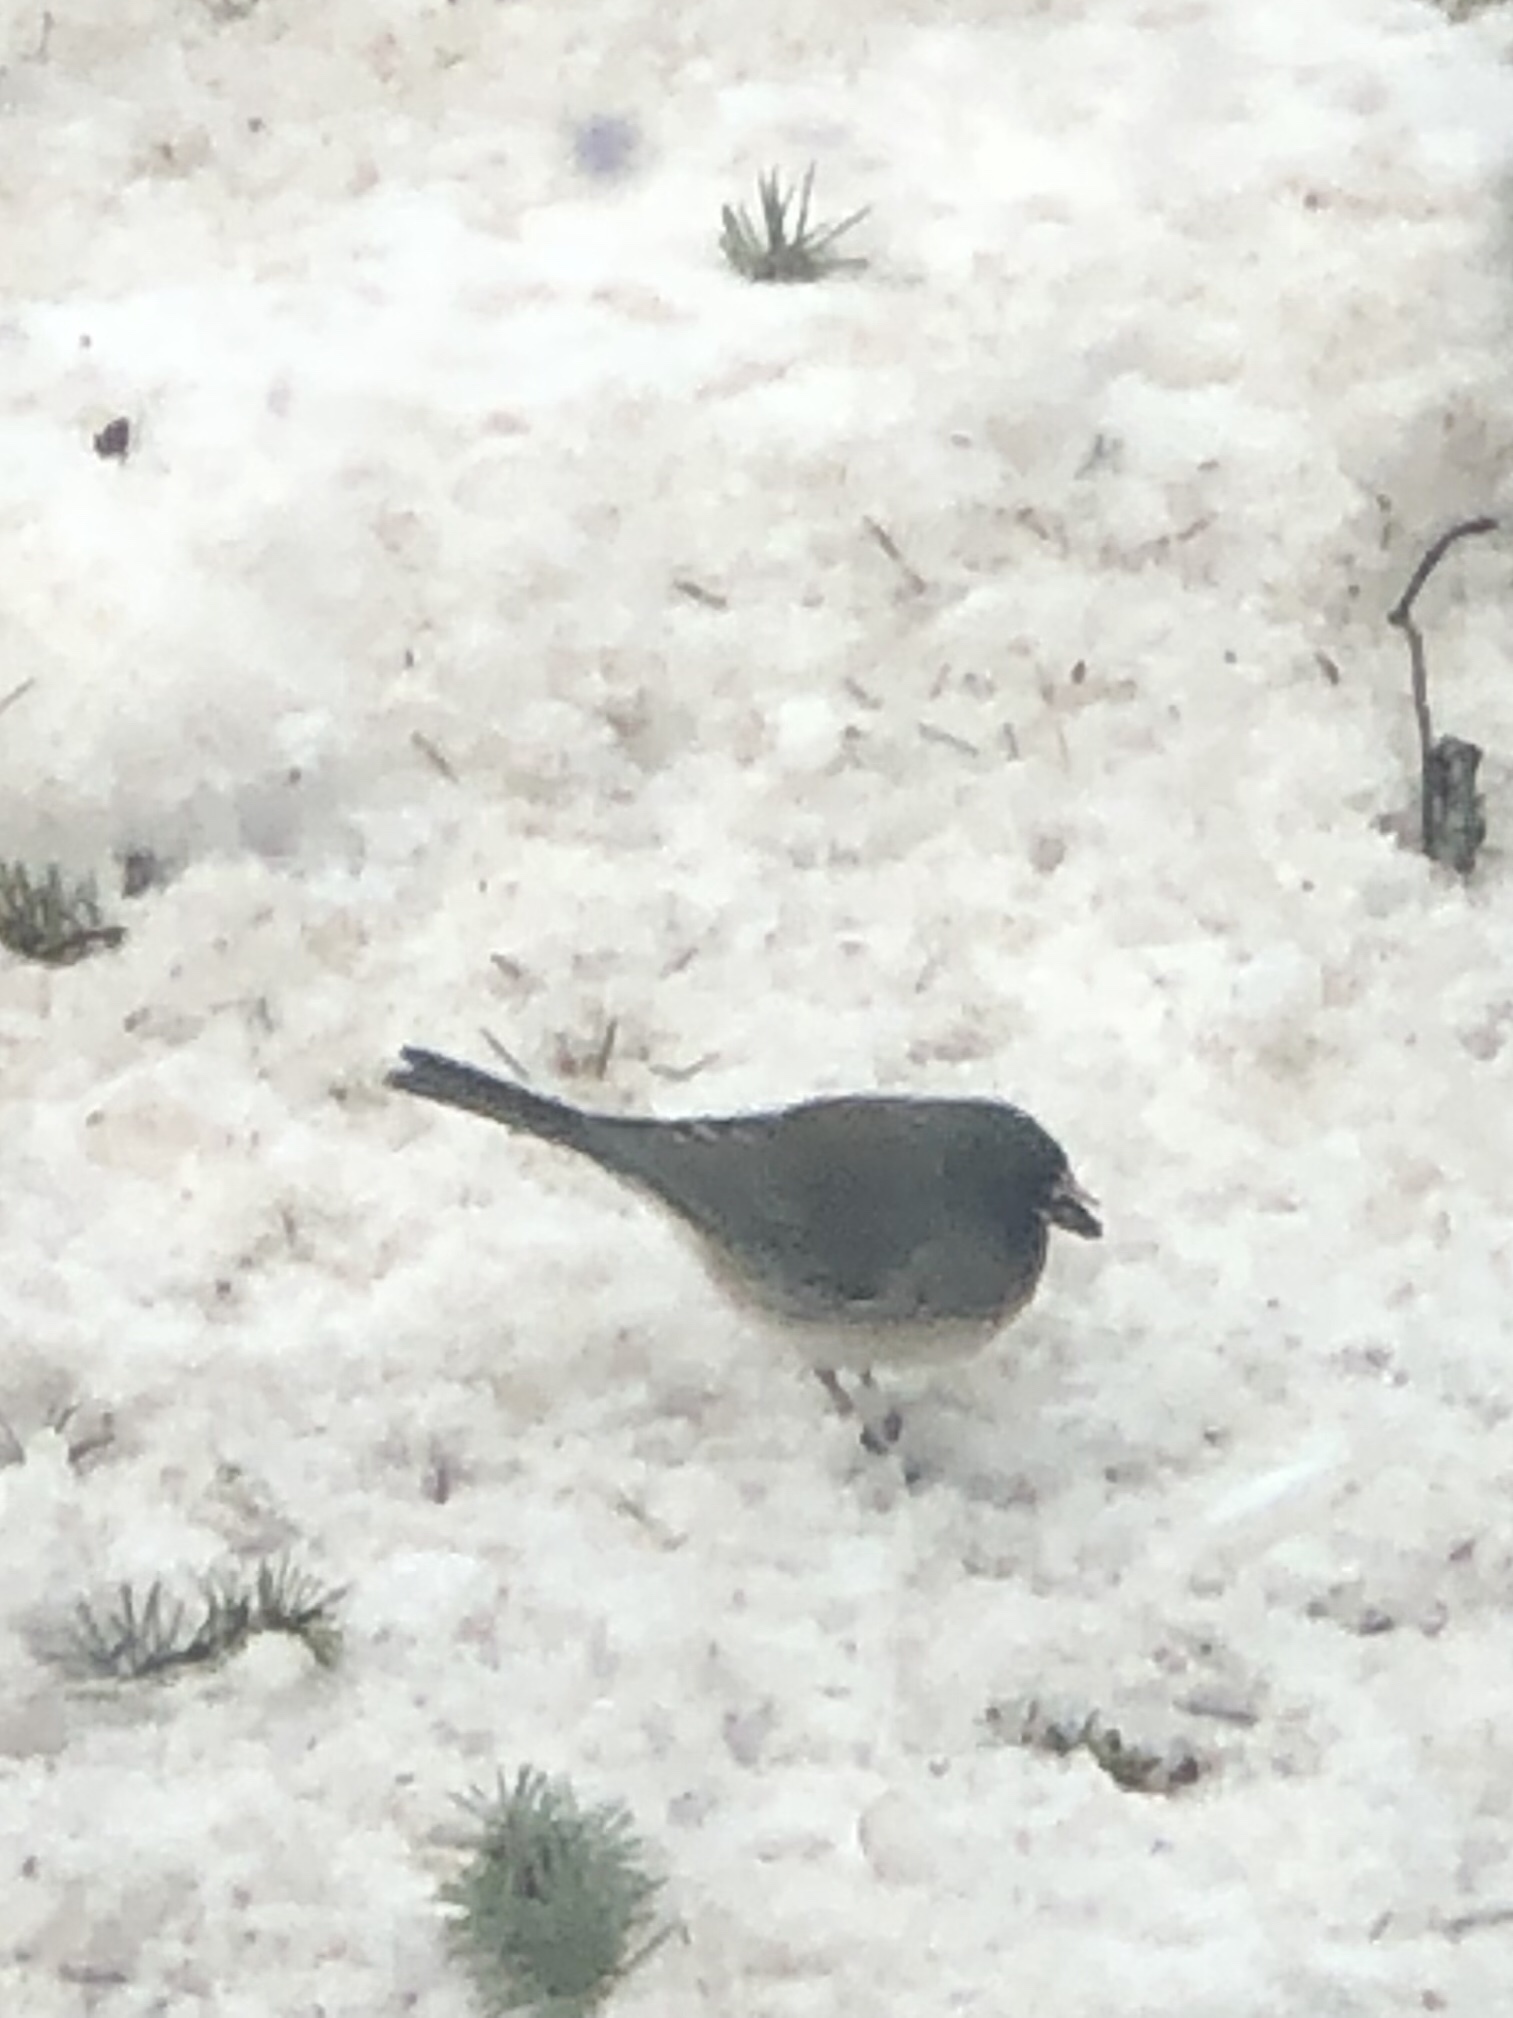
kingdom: Animalia
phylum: Chordata
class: Aves
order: Passeriformes
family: Passerellidae
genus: Junco
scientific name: Junco hyemalis
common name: Dark-eyed junco
